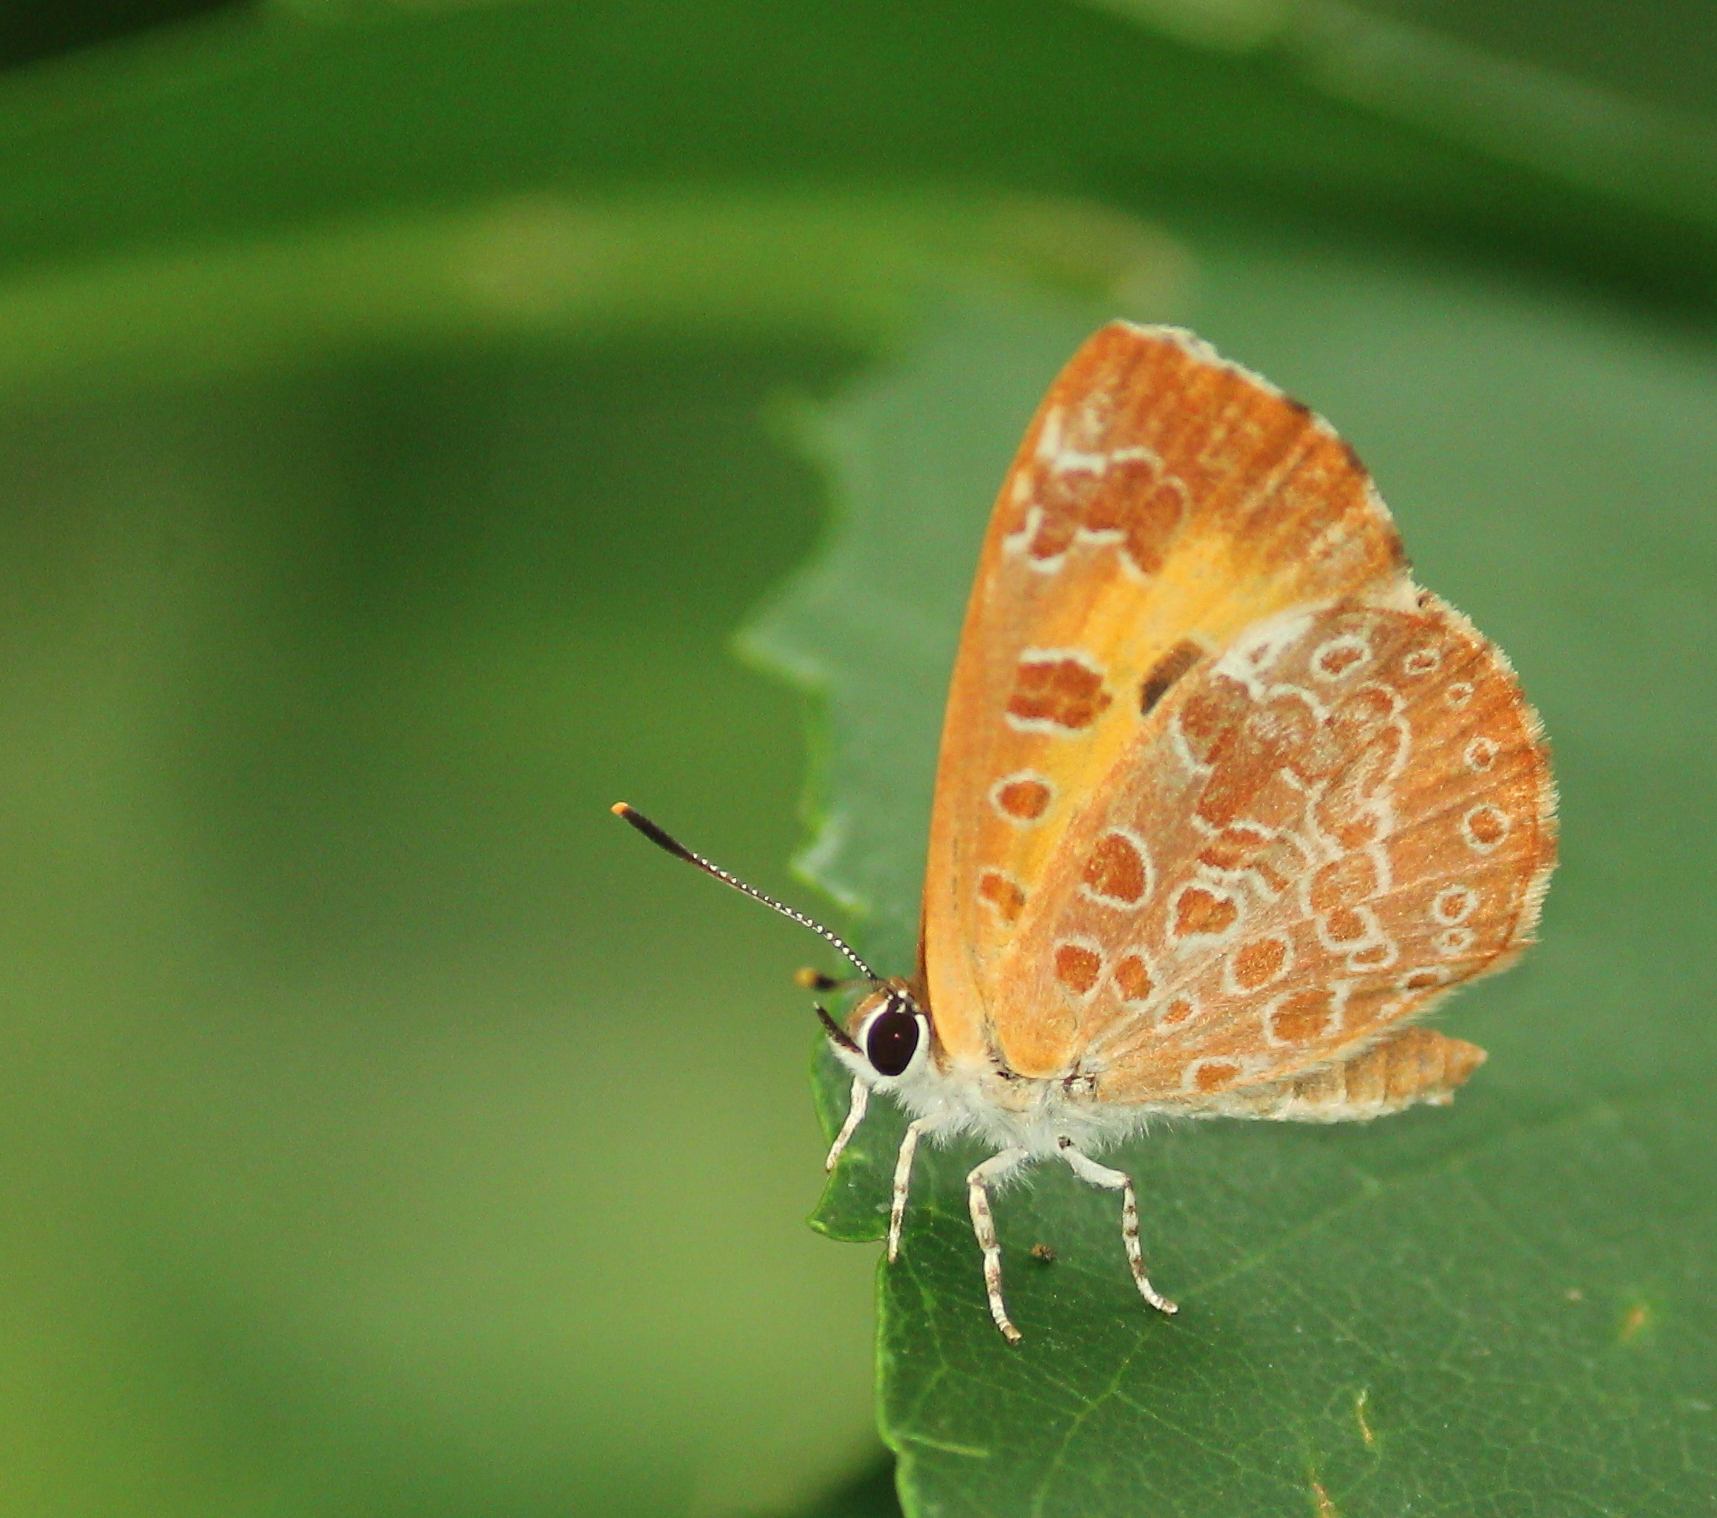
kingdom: Animalia
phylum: Arthropoda
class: Insecta
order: Lepidoptera
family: Lycaenidae
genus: Feniseca
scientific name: Feniseca tarquinius
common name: Harvester
